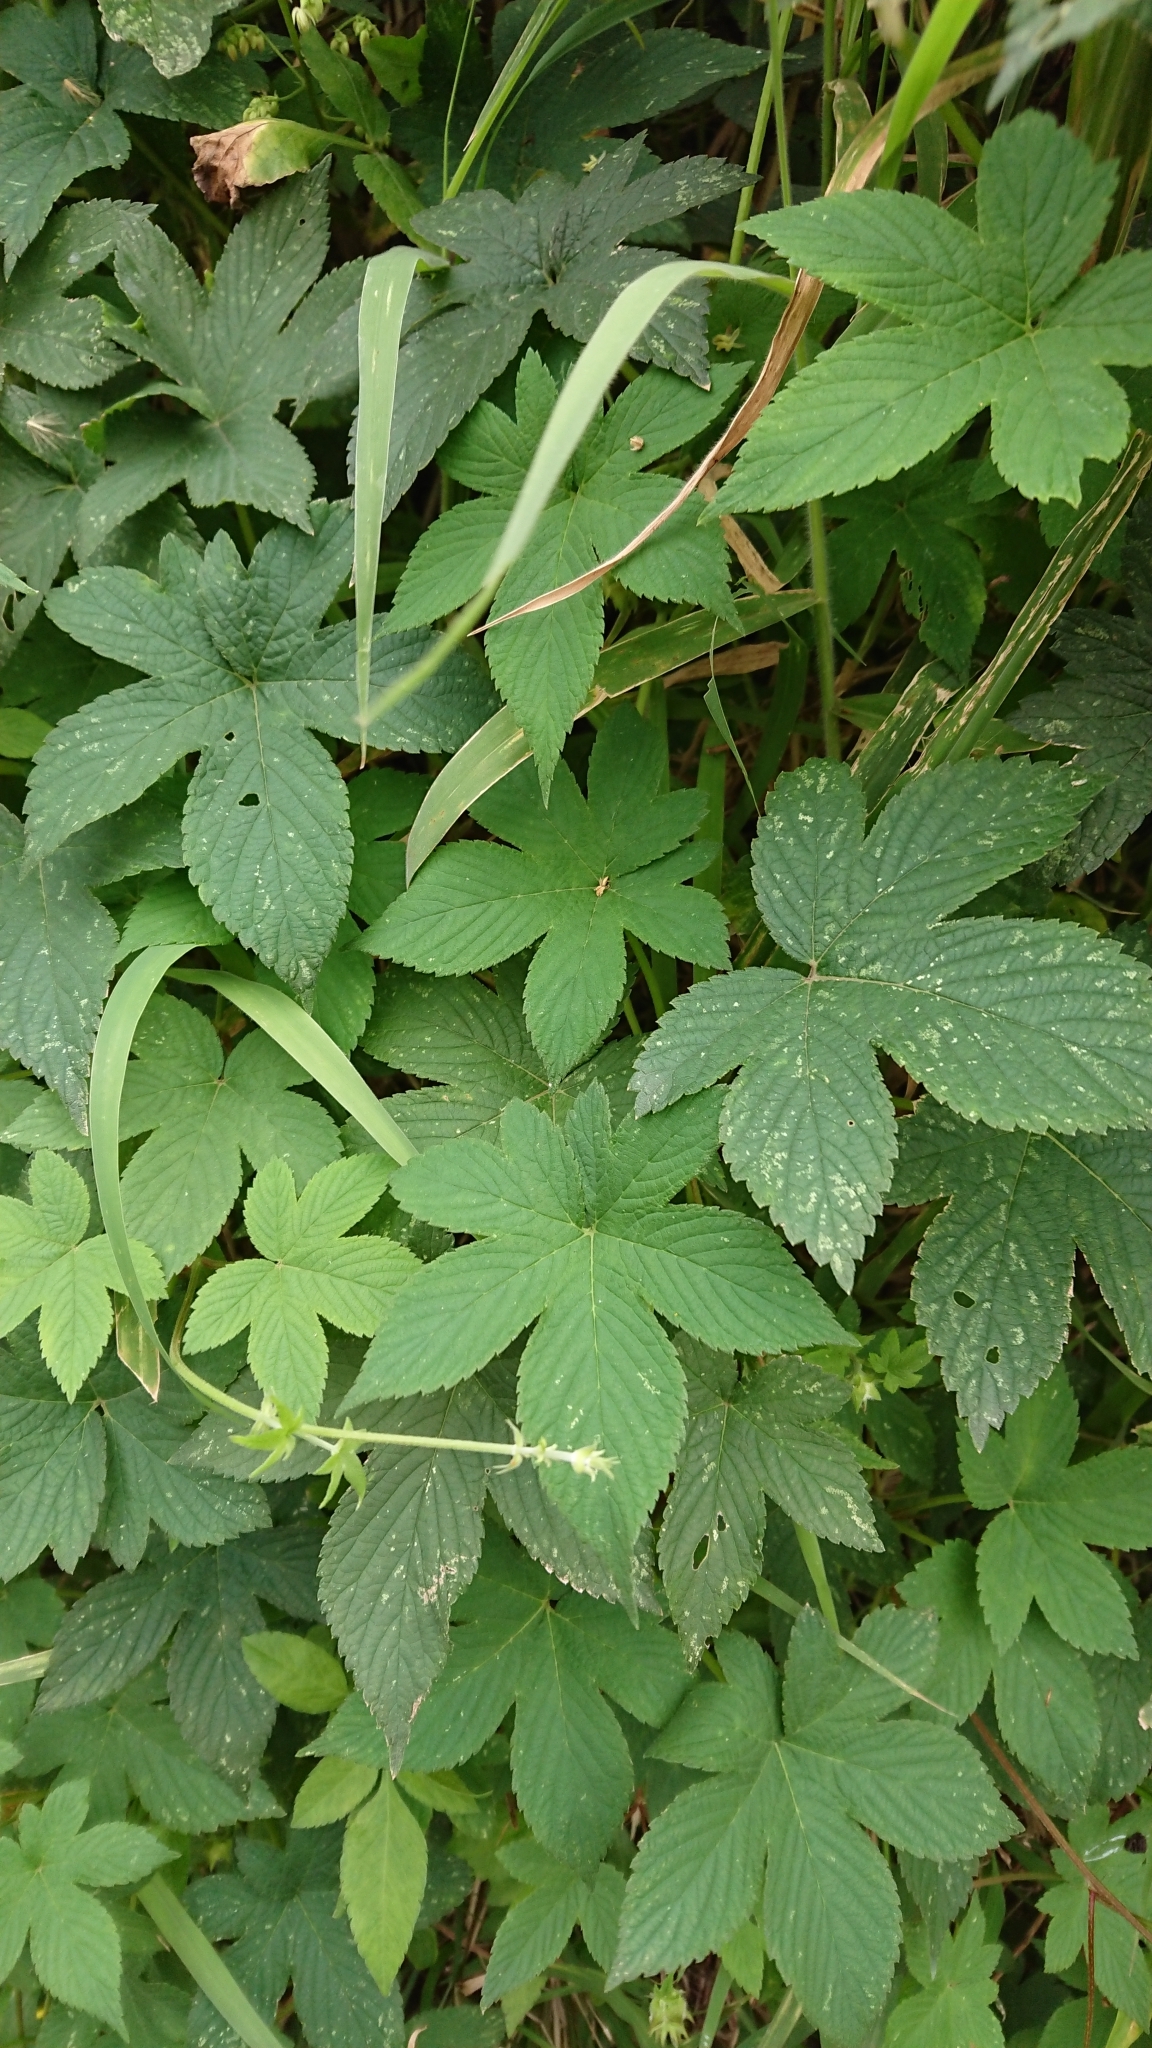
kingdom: Plantae
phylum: Tracheophyta
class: Magnoliopsida
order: Rosales
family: Cannabaceae
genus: Humulus
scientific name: Humulus scandens
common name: Japanese hop
